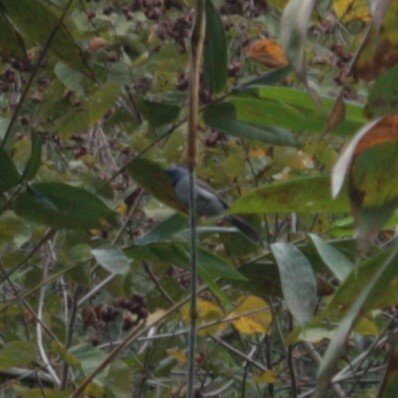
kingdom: Animalia
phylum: Chordata
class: Aves
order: Passeriformes
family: Monarchidae
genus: Hypothymis
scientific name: Hypothymis azurea
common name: Black-naped monarch
